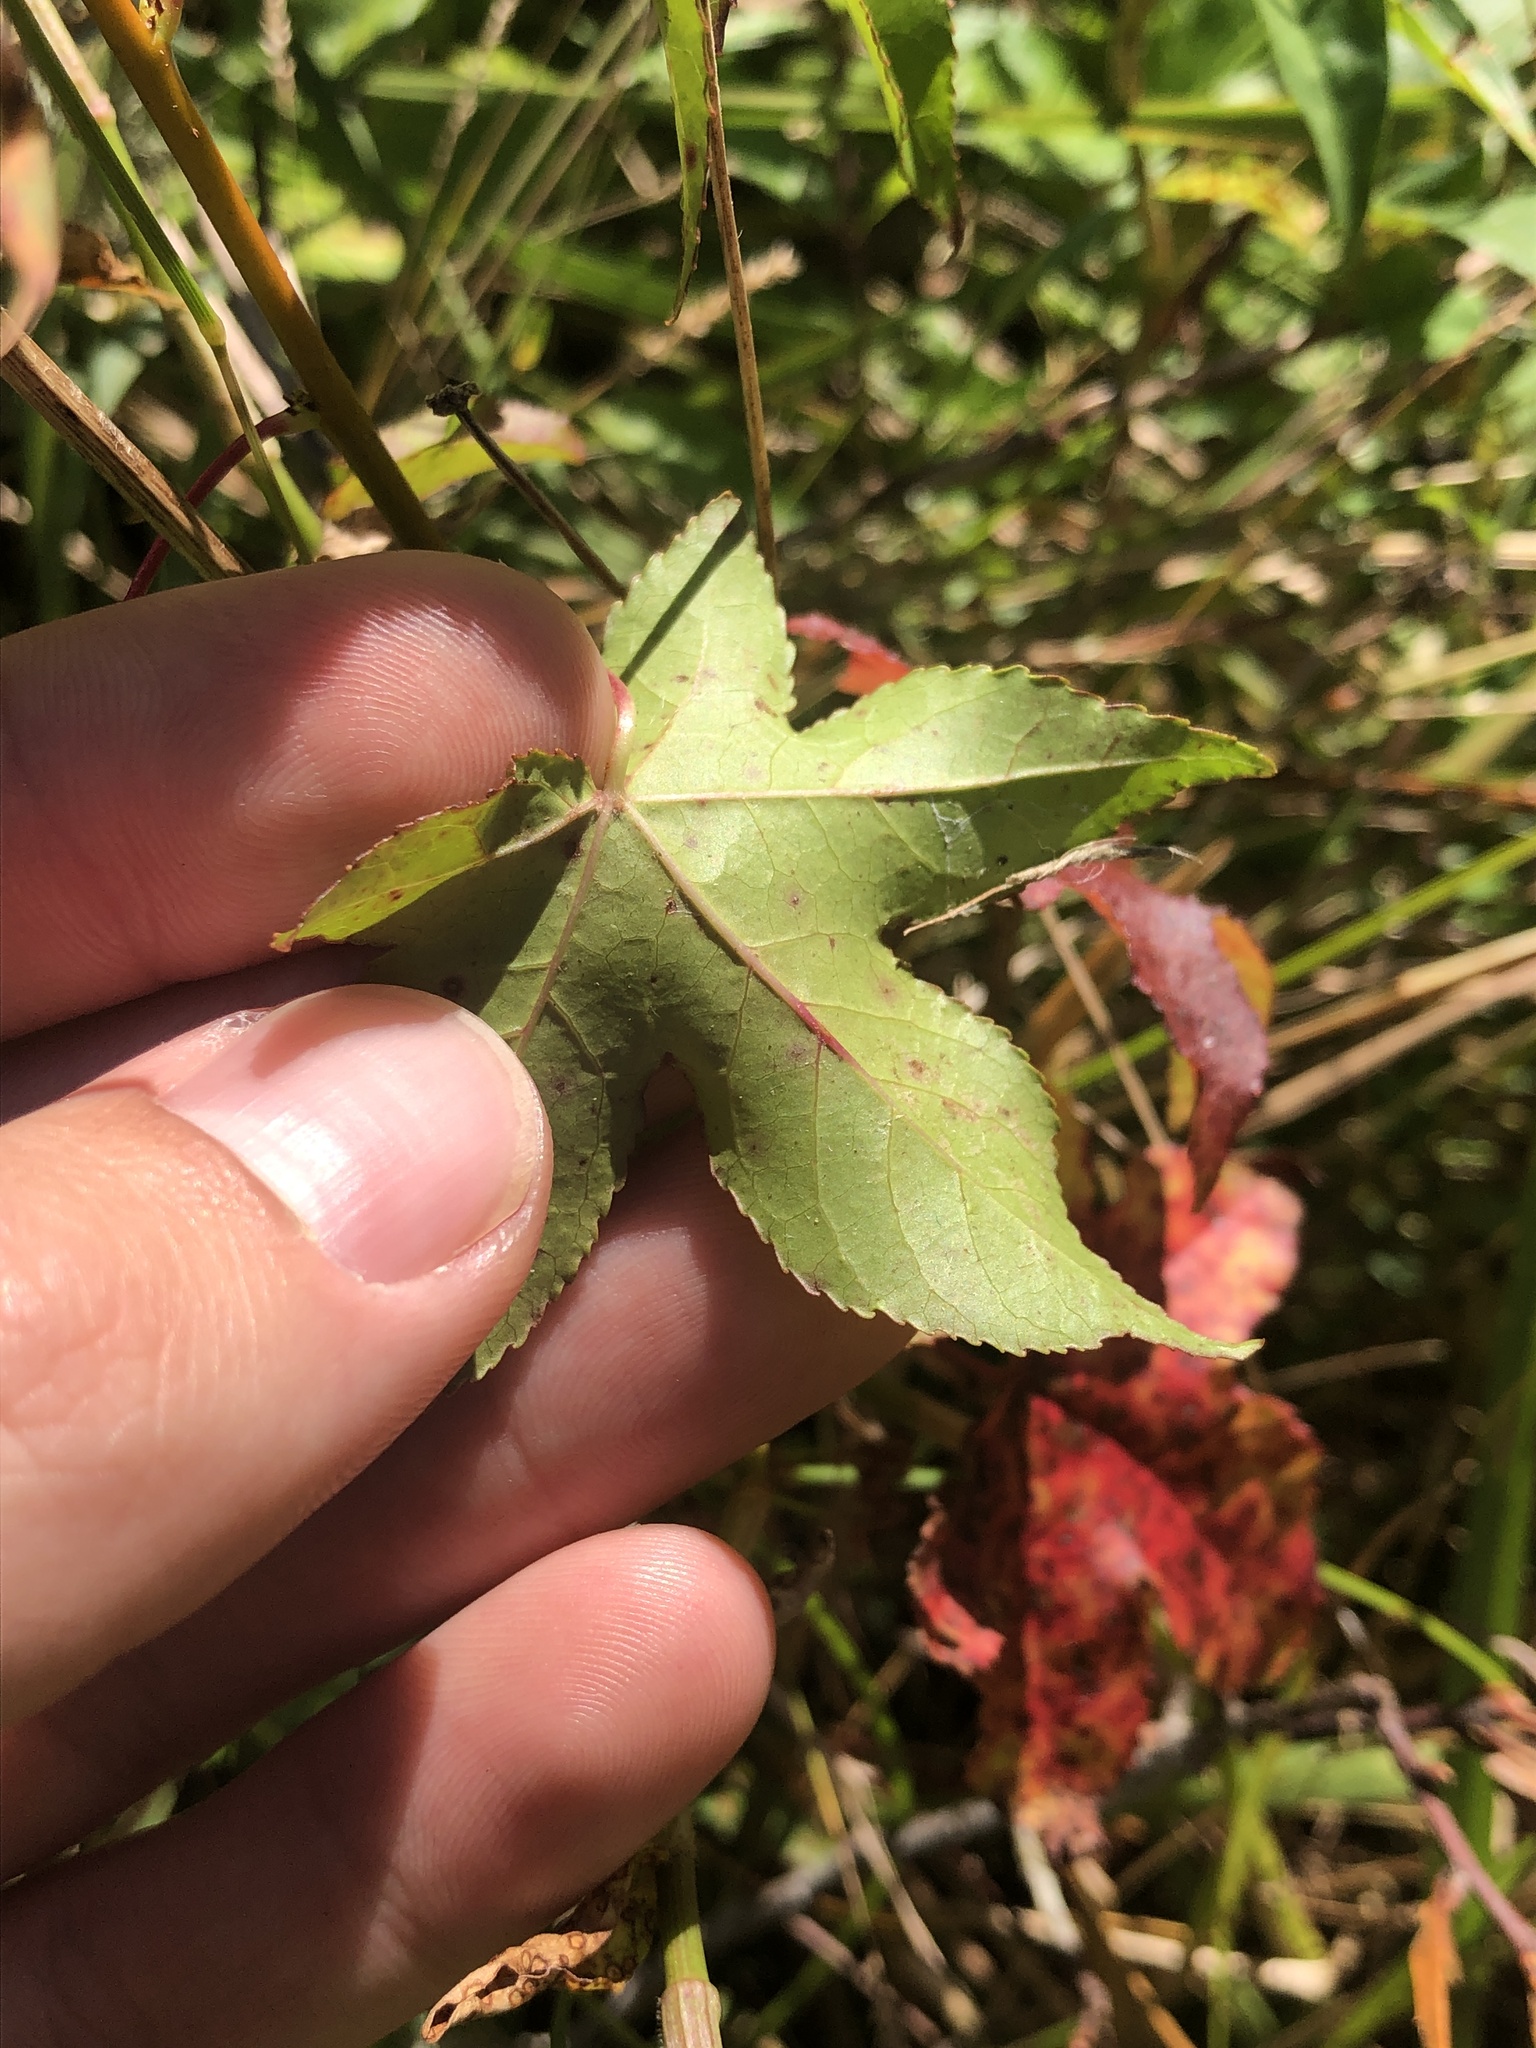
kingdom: Plantae
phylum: Tracheophyta
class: Magnoliopsida
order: Saxifragales
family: Altingiaceae
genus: Liquidambar
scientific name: Liquidambar styraciflua
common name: Sweet gum
